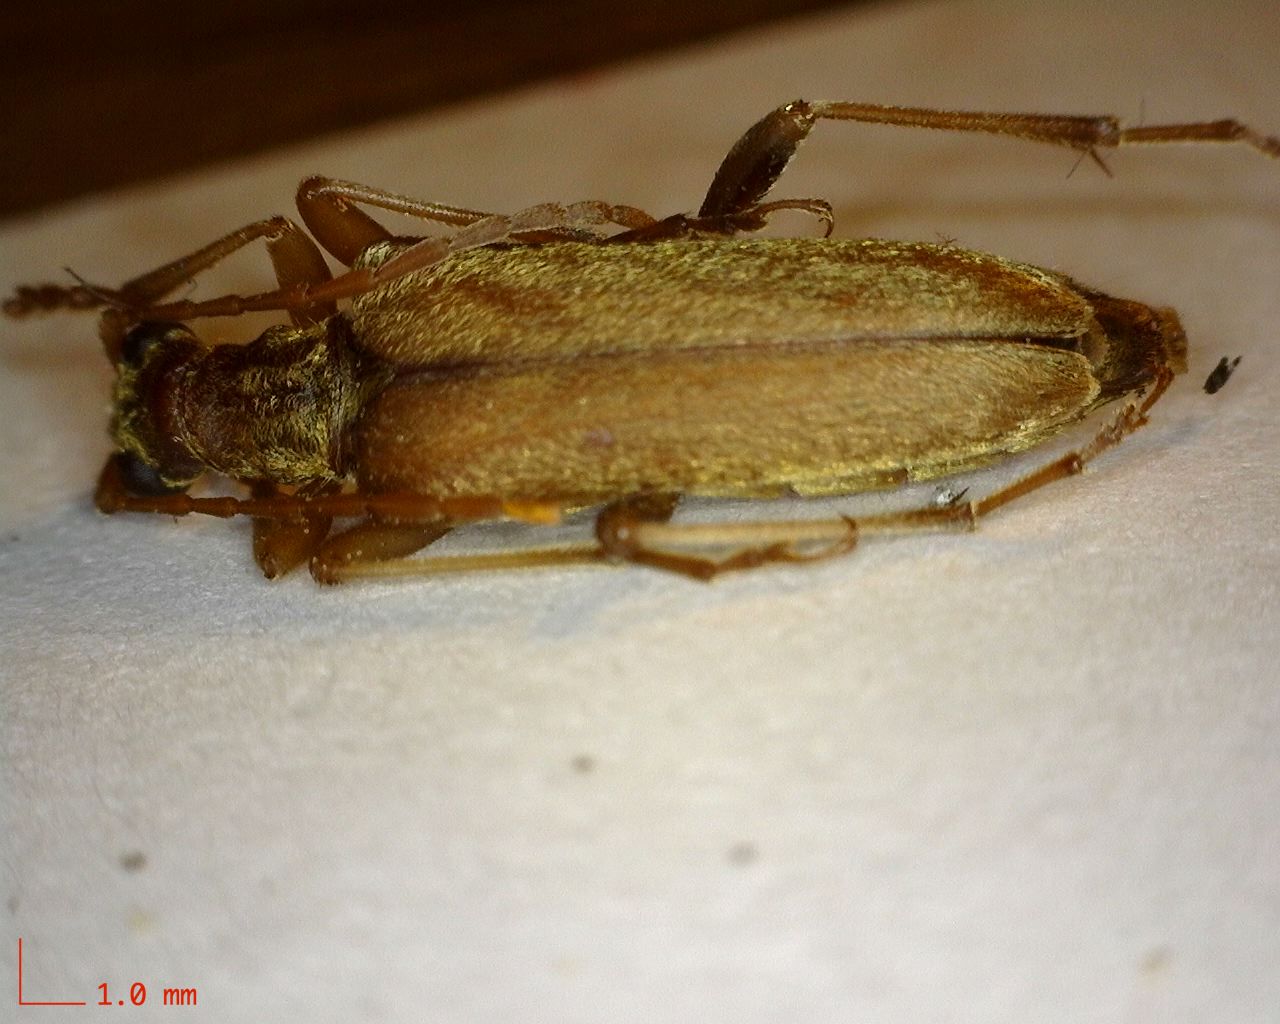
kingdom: Animalia
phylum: Arthropoda
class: Insecta
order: Coleoptera
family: Cerambycidae
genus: Stenocorus
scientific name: Stenocorus cinnamopterus
